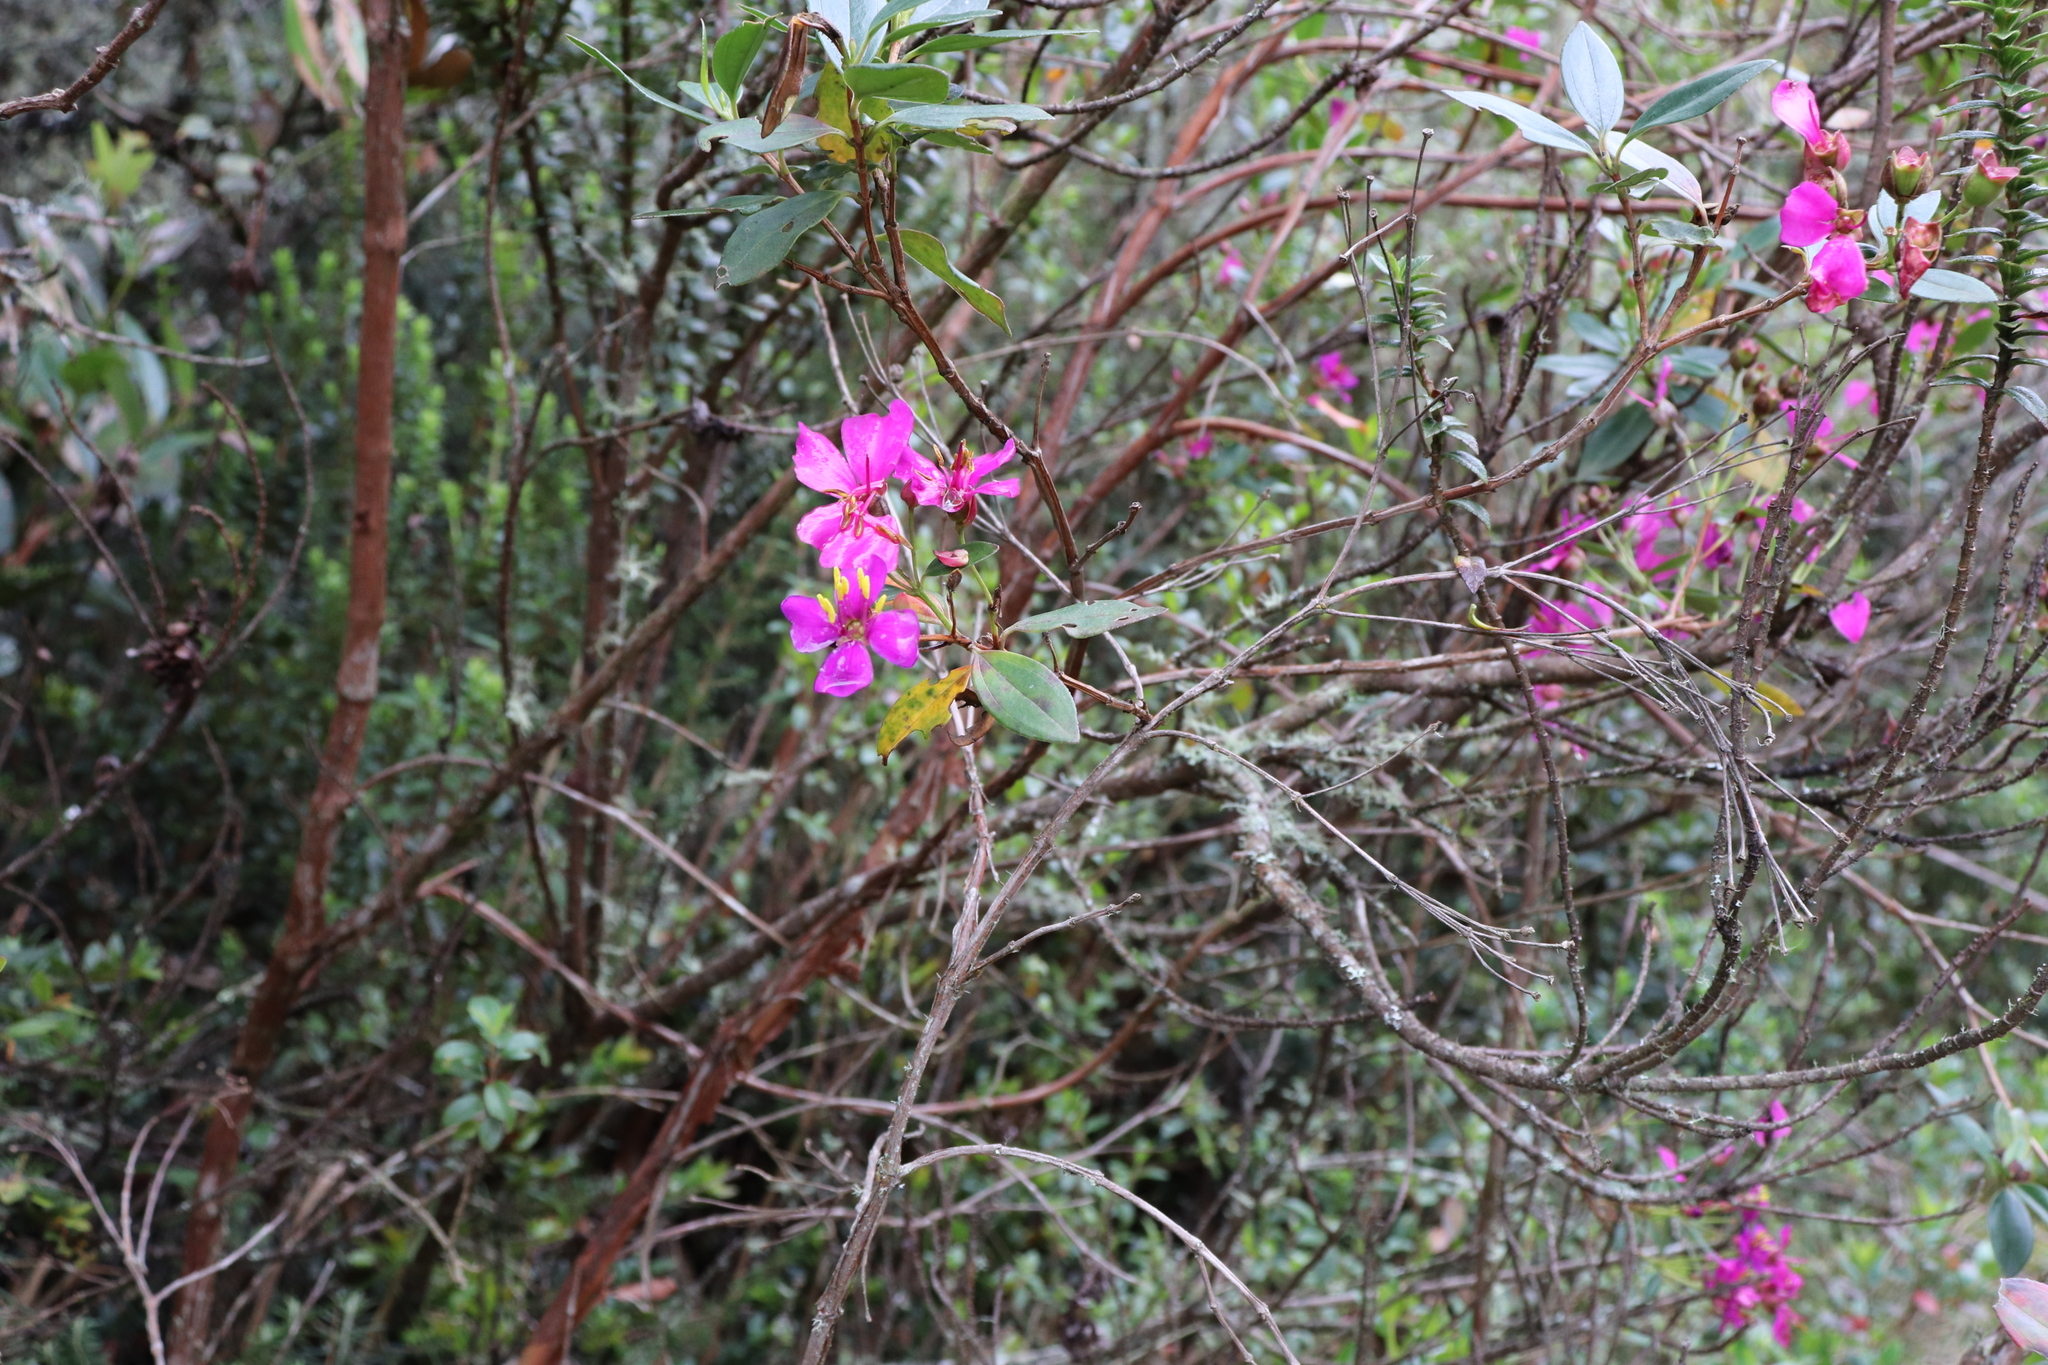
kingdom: Plantae
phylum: Tracheophyta
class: Magnoliopsida
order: Myrtales
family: Melastomataceae
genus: Bucquetia
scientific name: Bucquetia glutinosa
